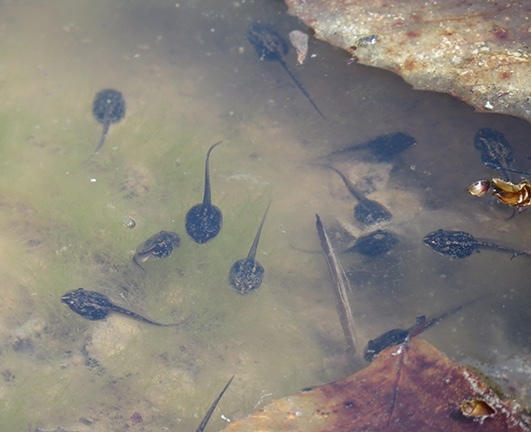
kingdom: Animalia
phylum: Chordata
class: Amphibia
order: Anura
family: Ranidae
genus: Lithobates
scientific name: Lithobates sylvaticus
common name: Wood frog
